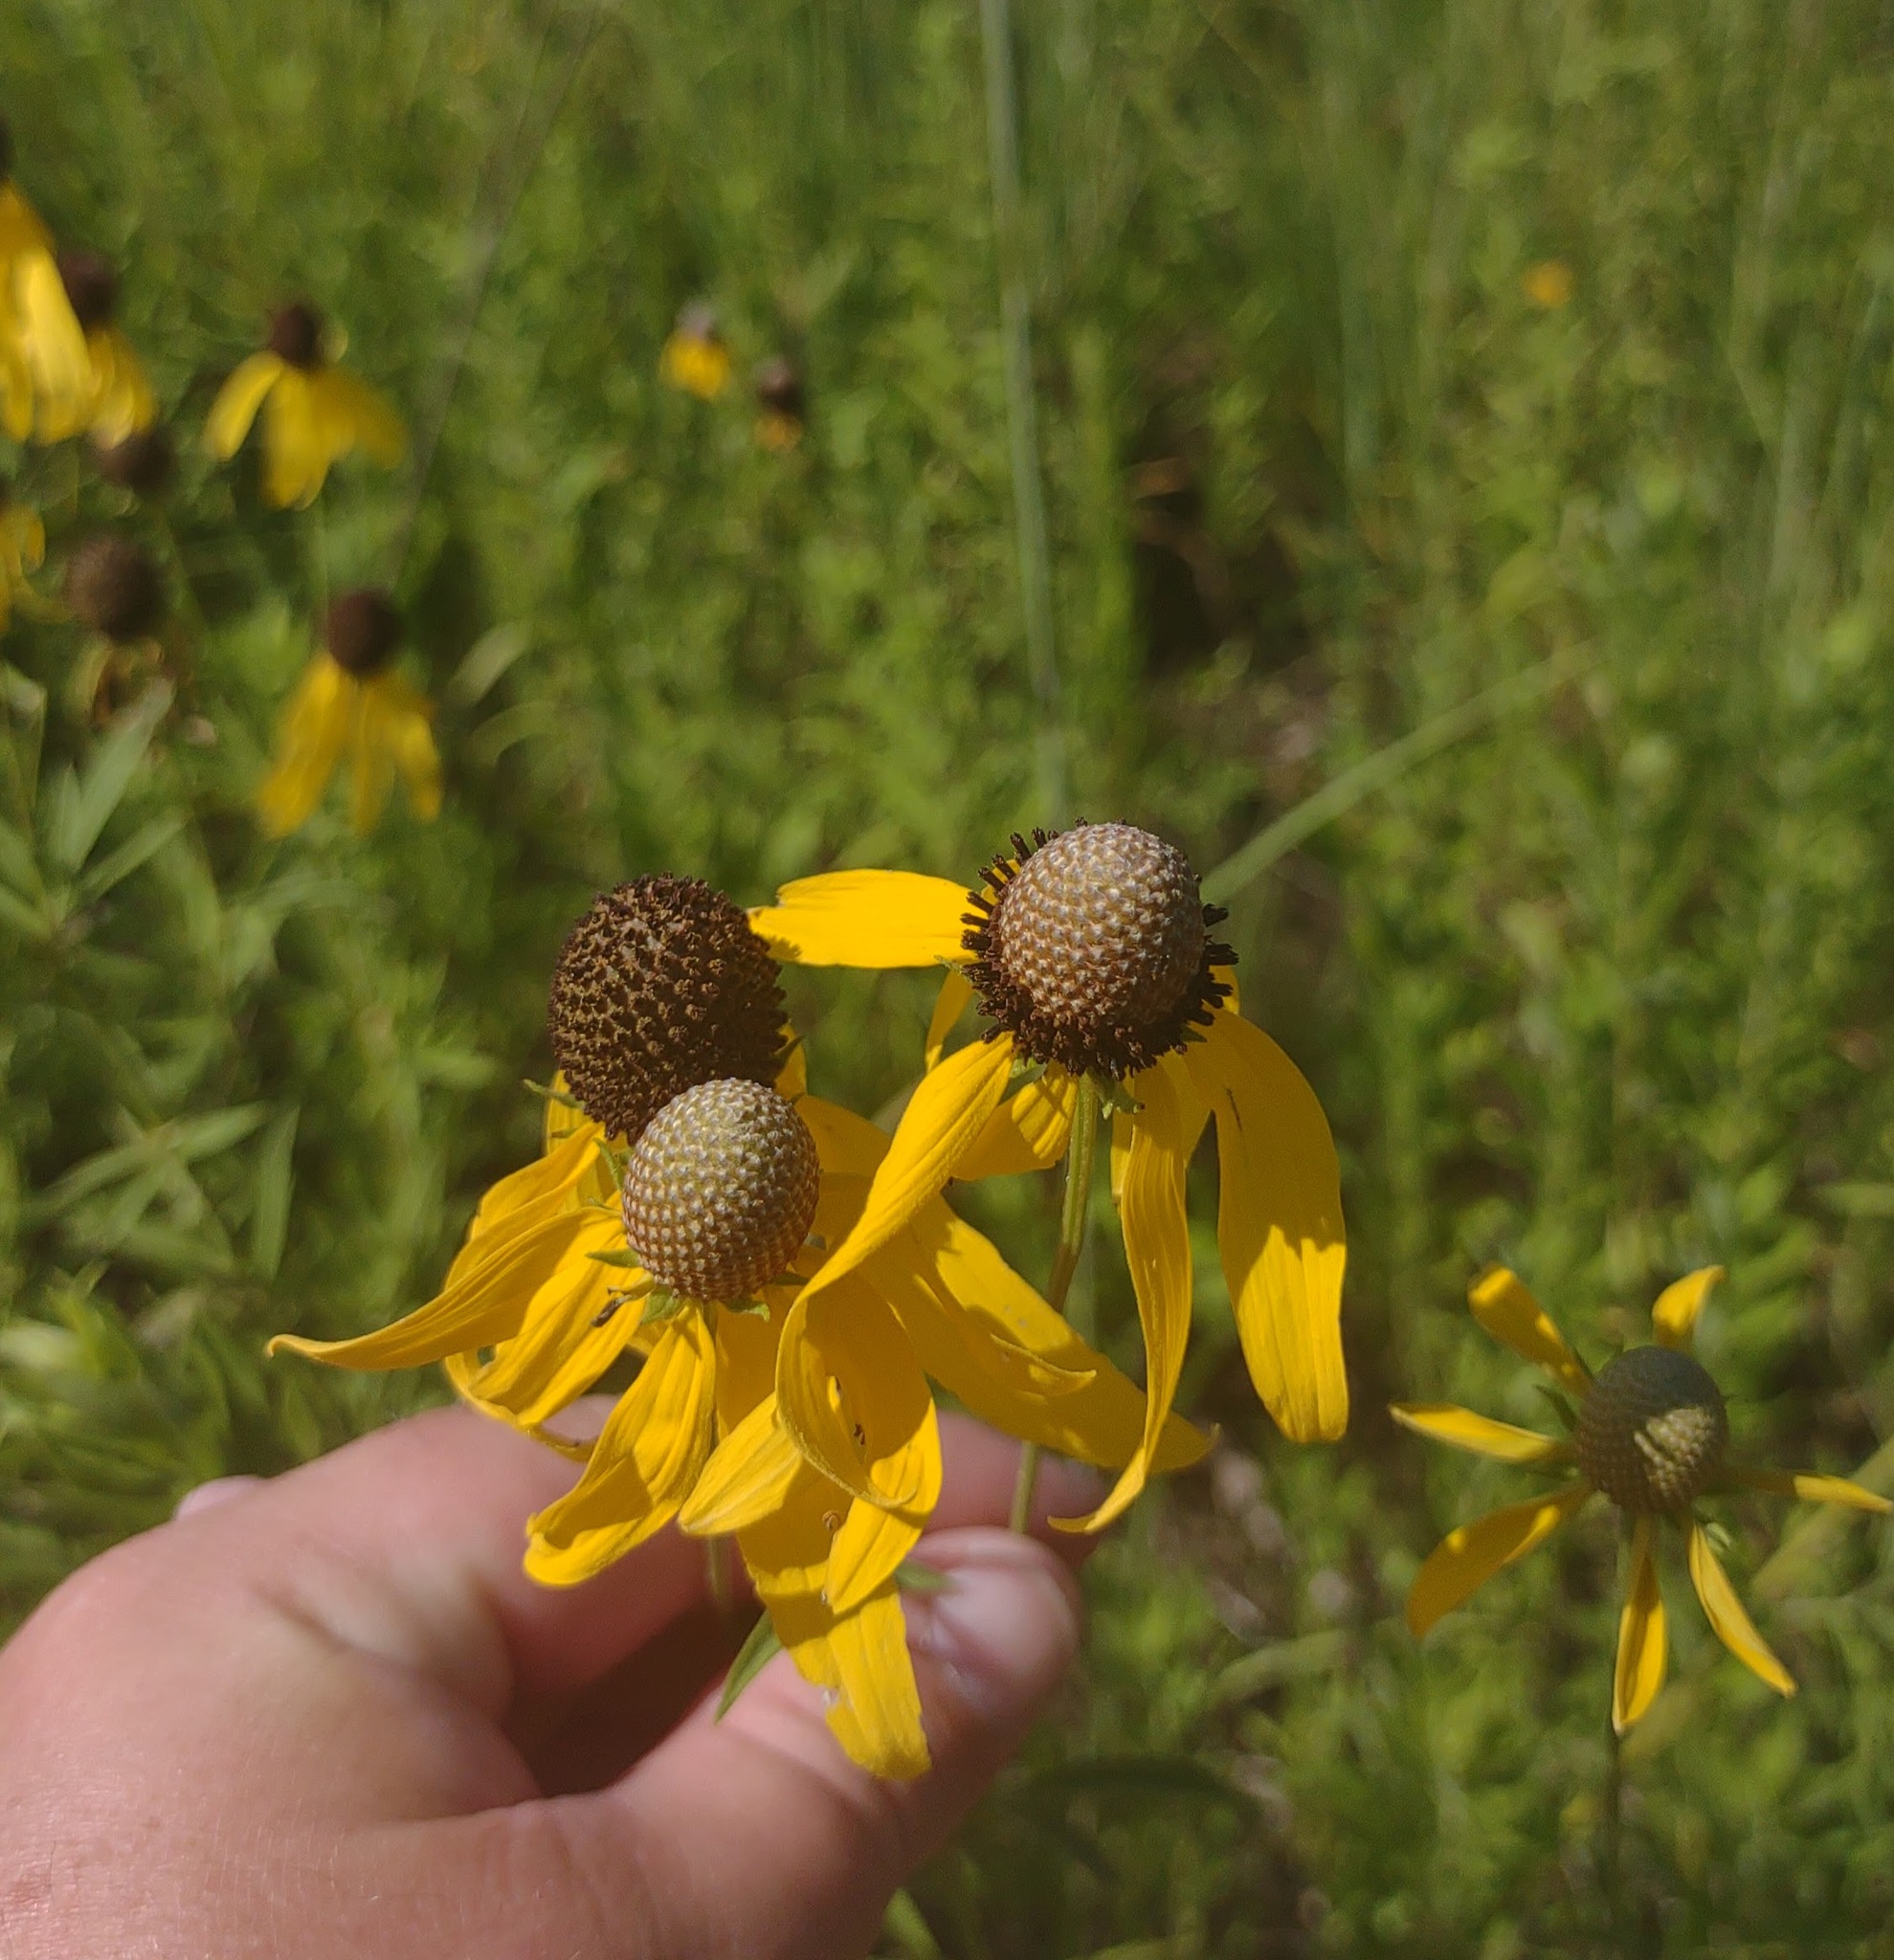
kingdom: Plantae
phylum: Tracheophyta
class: Magnoliopsida
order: Asterales
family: Asteraceae
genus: Ratibida
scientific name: Ratibida pinnata
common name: Drooping prairie-coneflower
